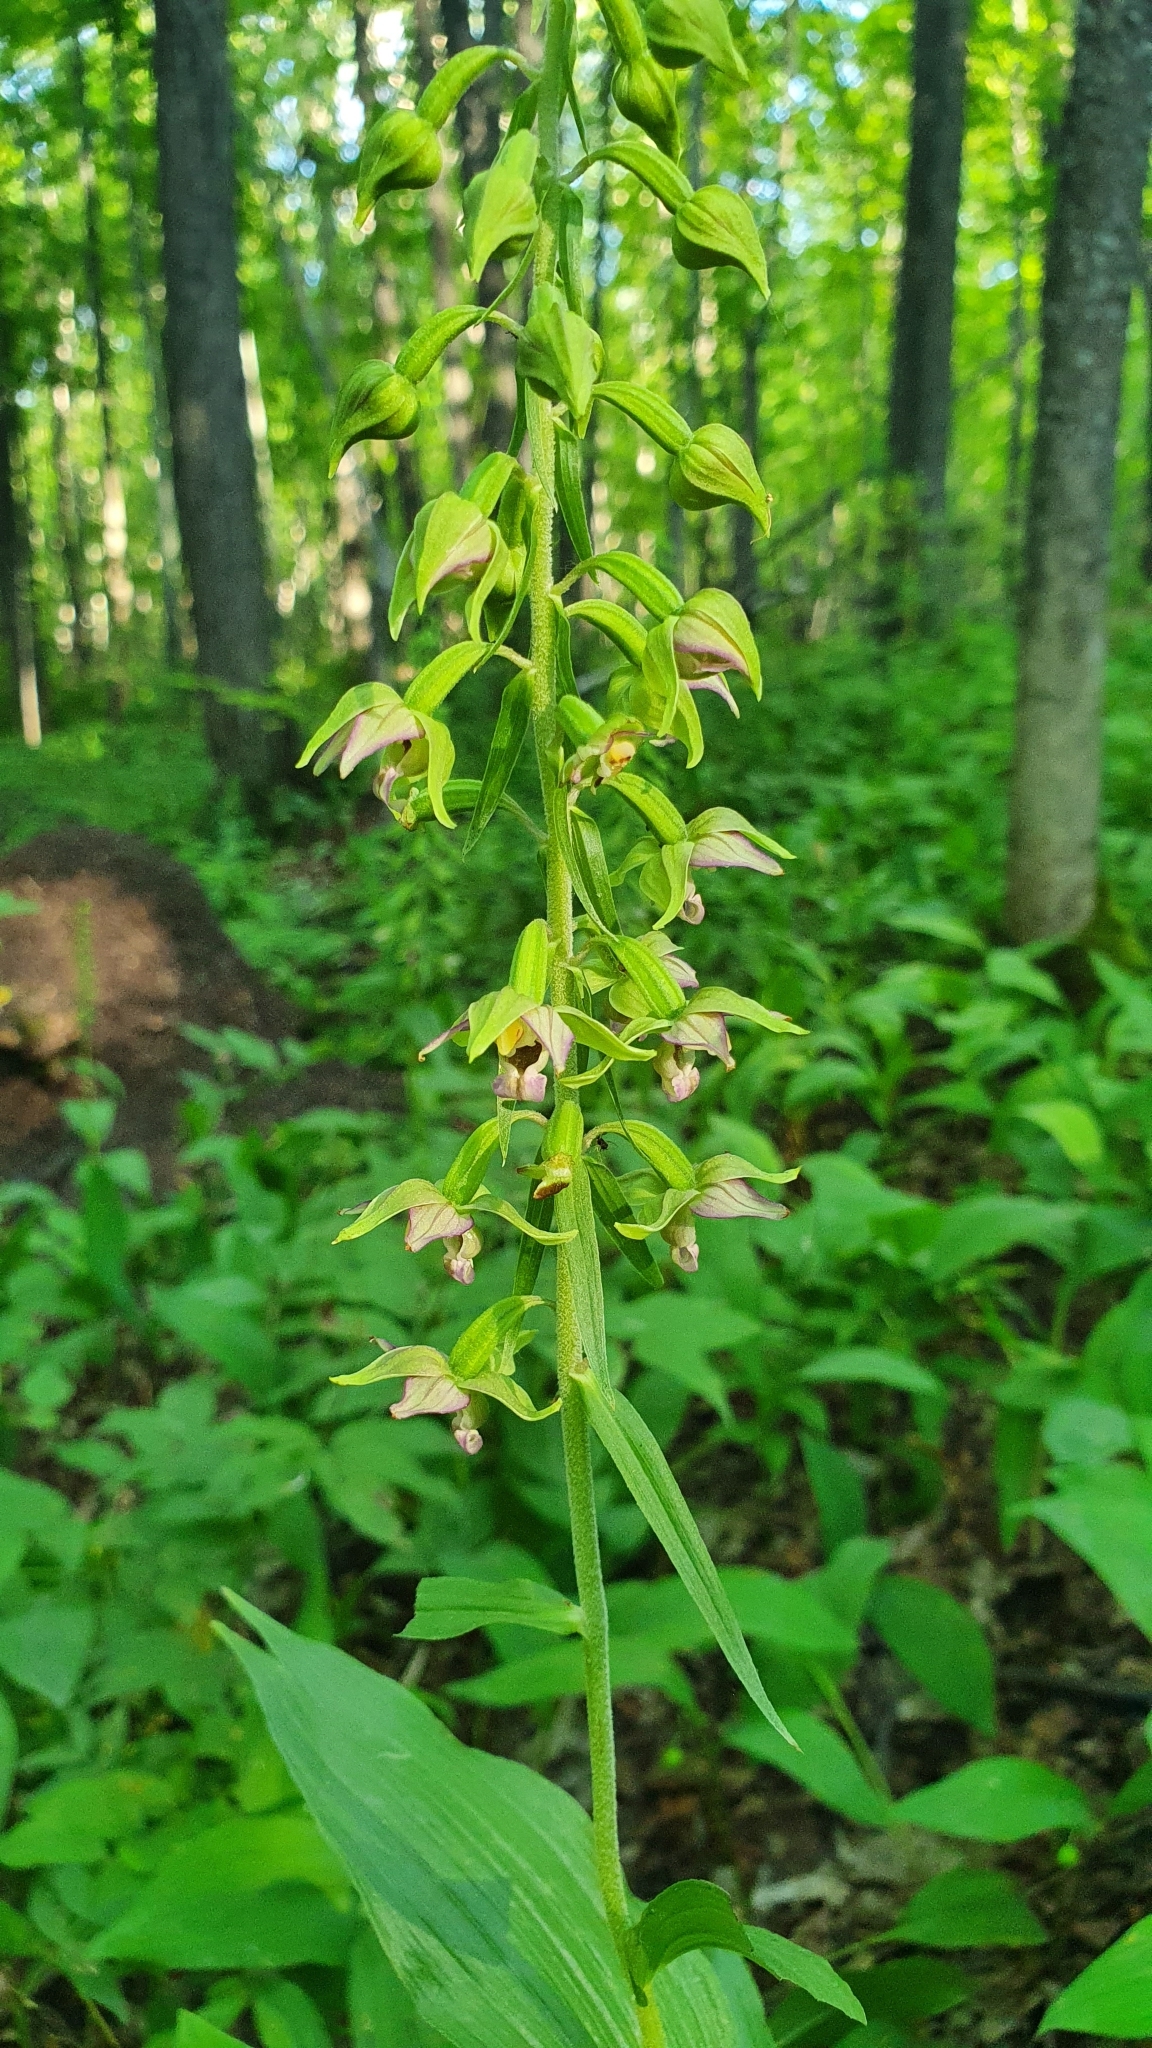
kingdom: Plantae
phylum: Tracheophyta
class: Liliopsida
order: Asparagales
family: Orchidaceae
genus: Epipactis
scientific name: Epipactis helleborine
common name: Broad-leaved helleborine
